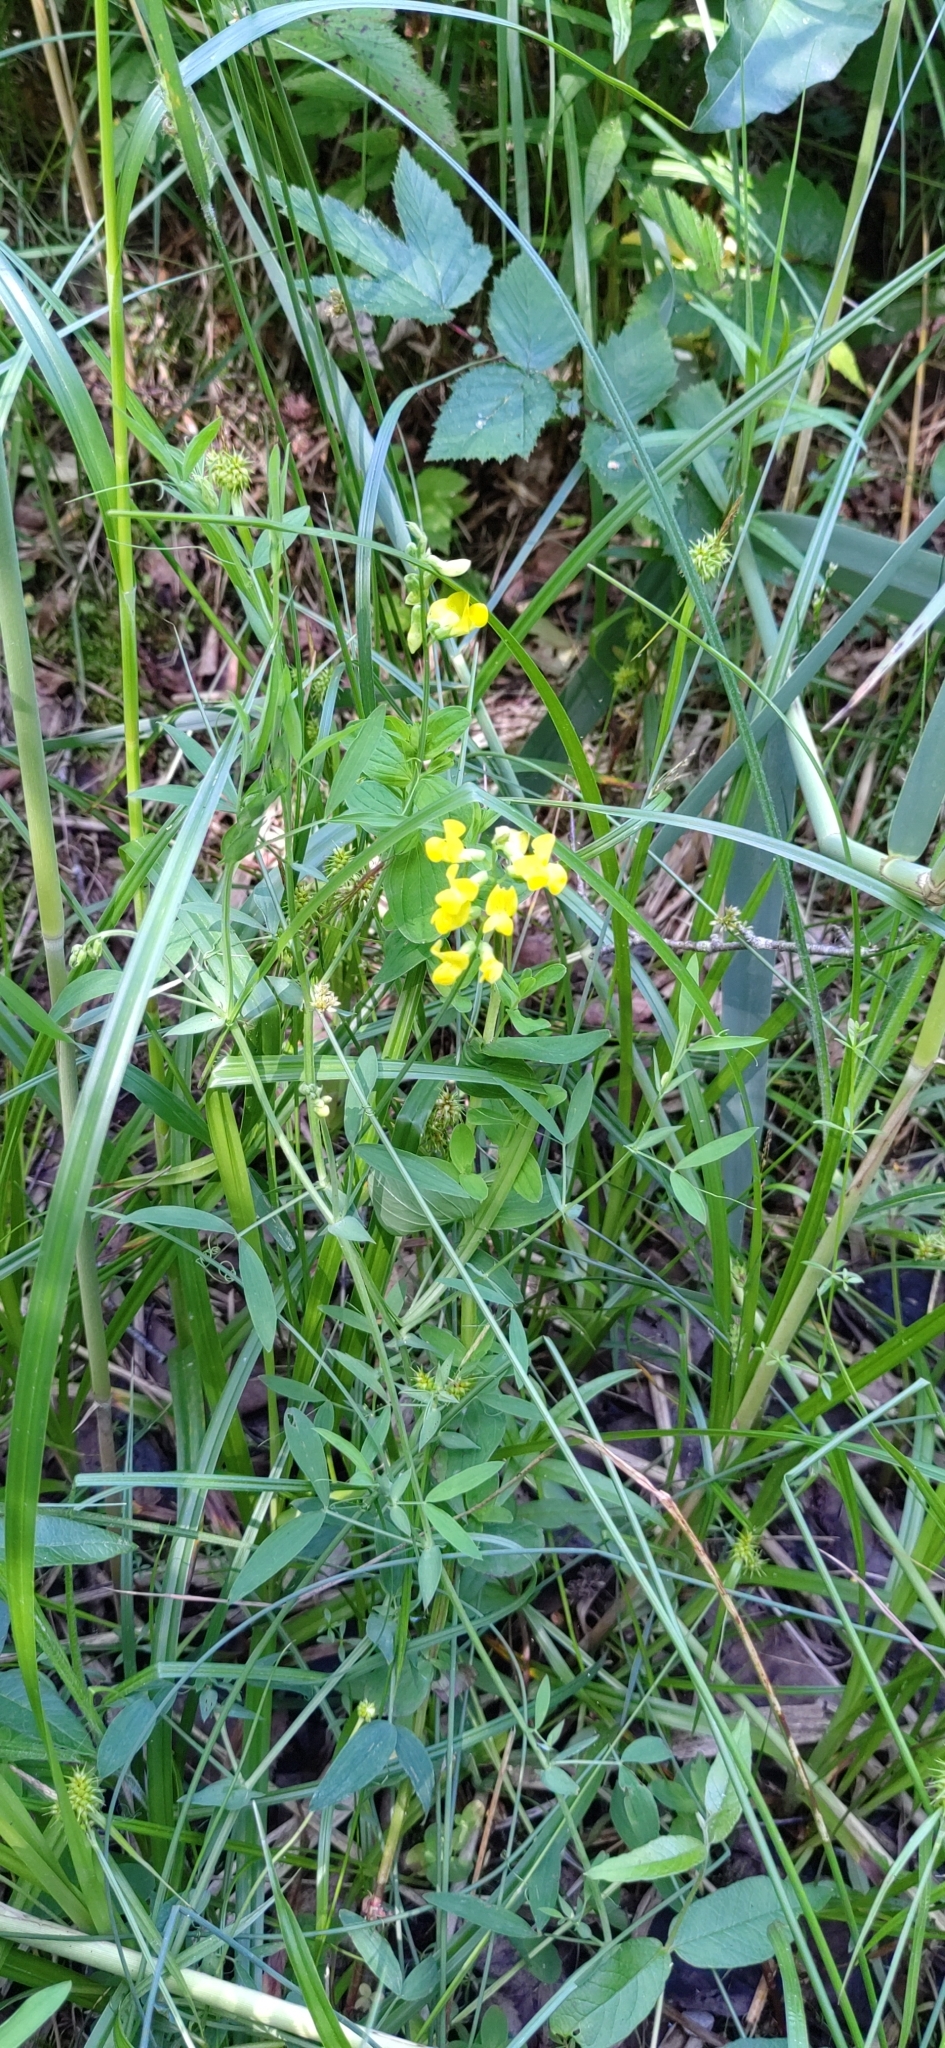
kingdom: Plantae
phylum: Tracheophyta
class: Magnoliopsida
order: Fabales
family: Fabaceae
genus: Lathyrus
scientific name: Lathyrus pratensis
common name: Meadow vetchling
